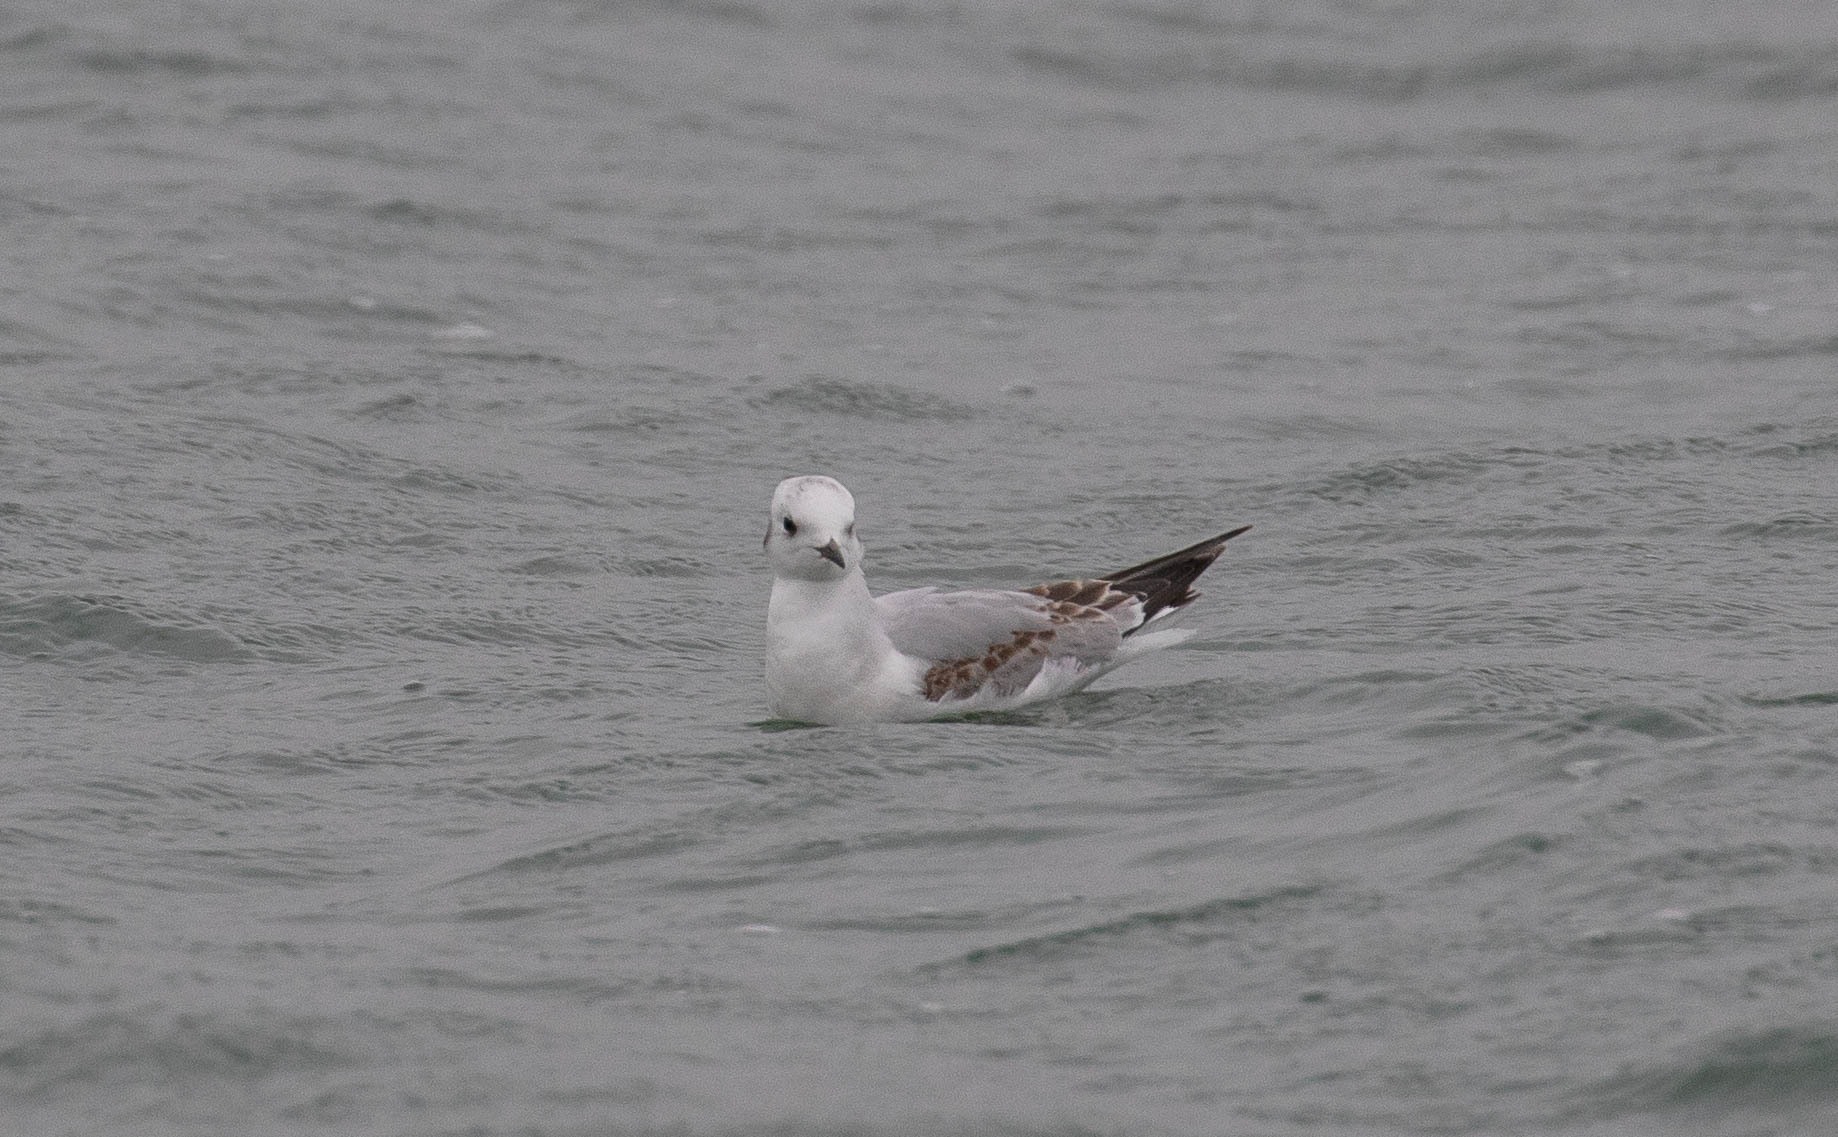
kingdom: Animalia
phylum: Chordata
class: Aves
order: Charadriiformes
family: Laridae
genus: Chroicocephalus
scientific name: Chroicocephalus philadelphia
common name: Bonaparte's gull
